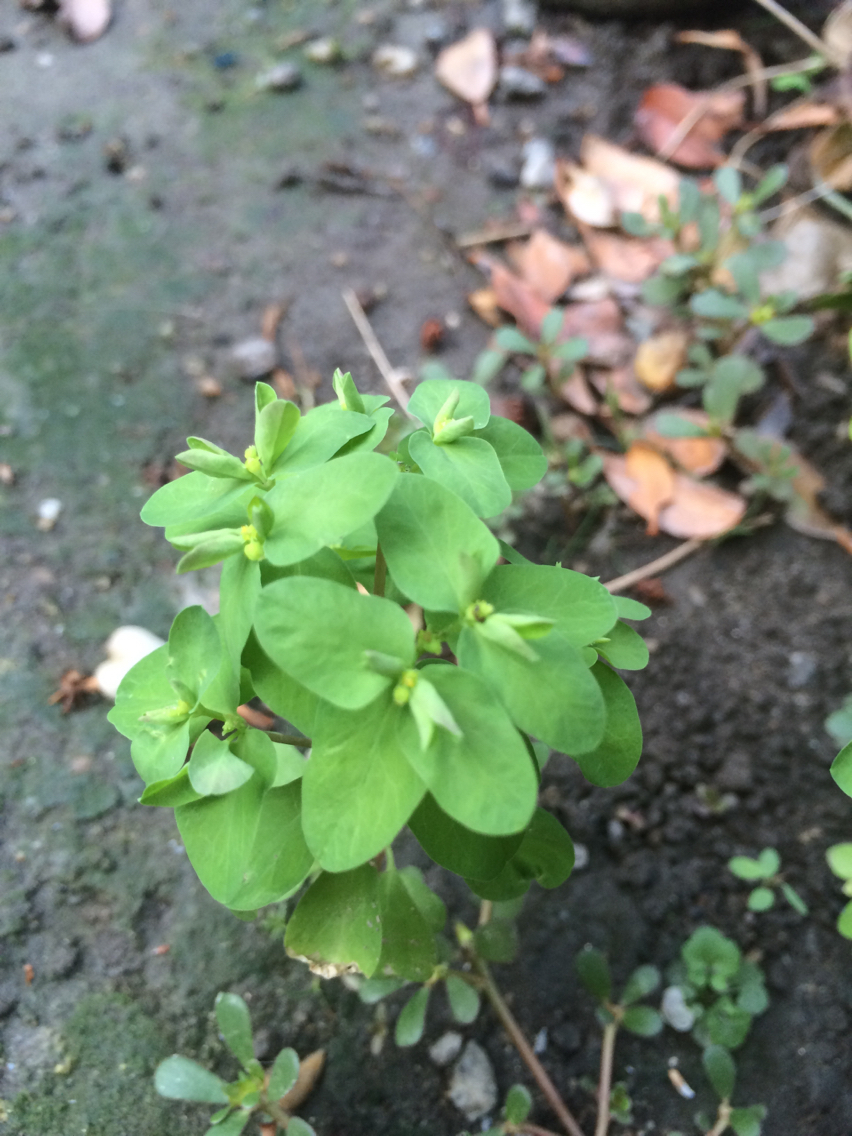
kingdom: Plantae
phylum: Tracheophyta
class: Magnoliopsida
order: Malpighiales
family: Euphorbiaceae
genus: Euphorbia
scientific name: Euphorbia peplus
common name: Petty spurge
